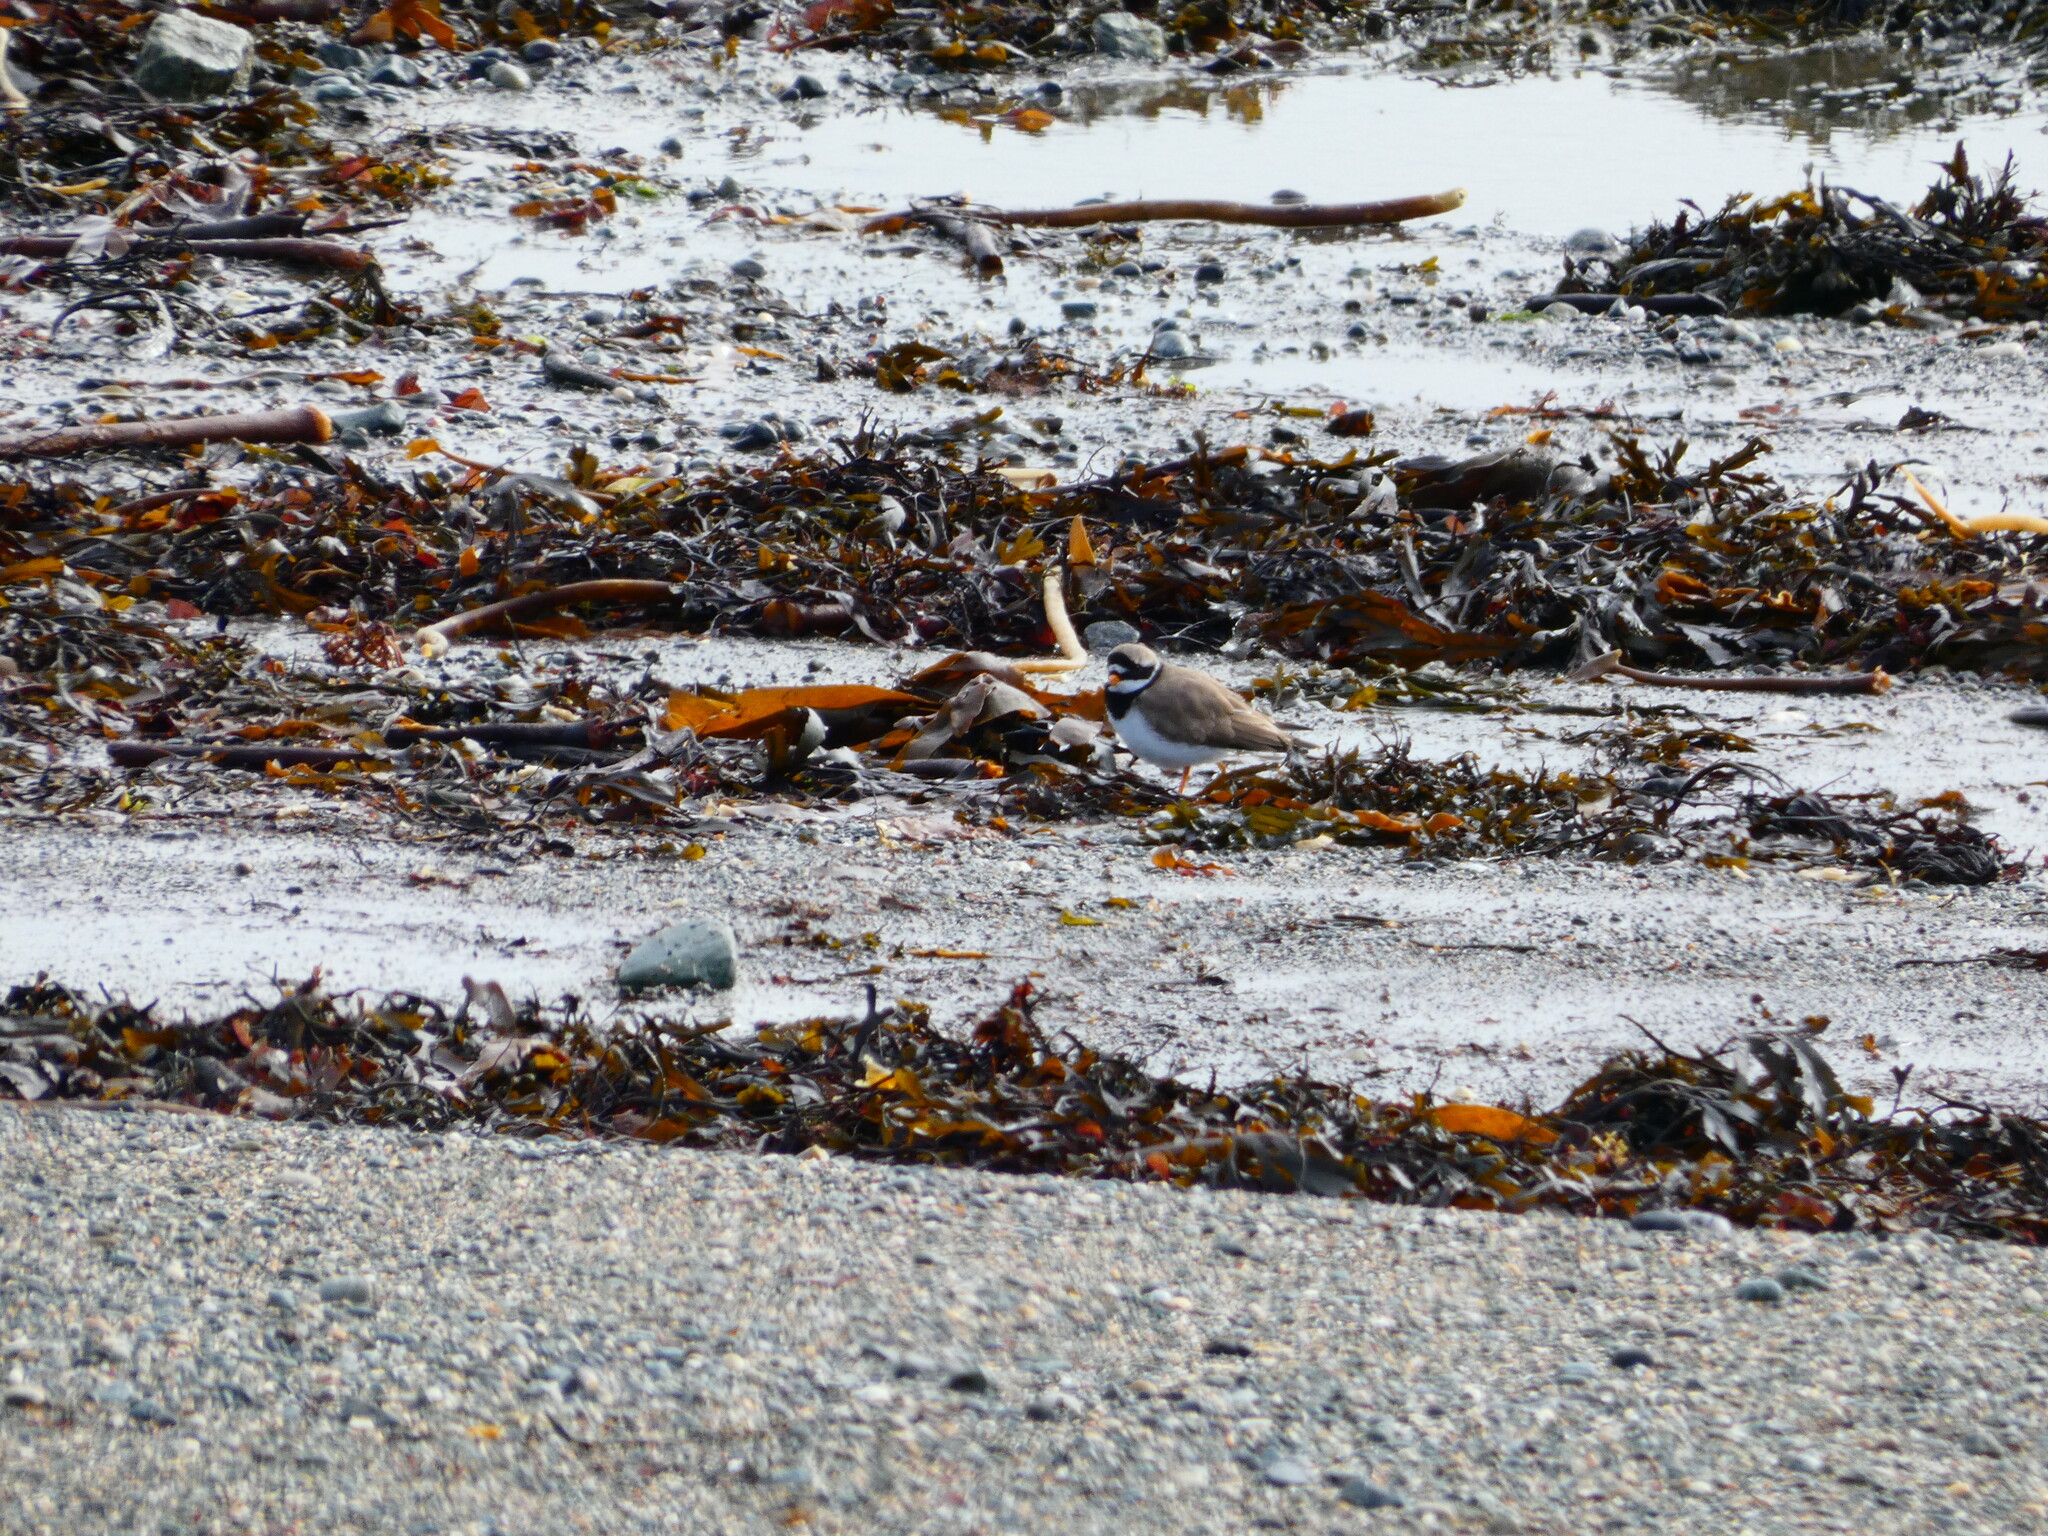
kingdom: Animalia
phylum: Chordata
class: Aves
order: Charadriiformes
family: Charadriidae
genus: Charadrius
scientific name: Charadrius hiaticula
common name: Common ringed plover
